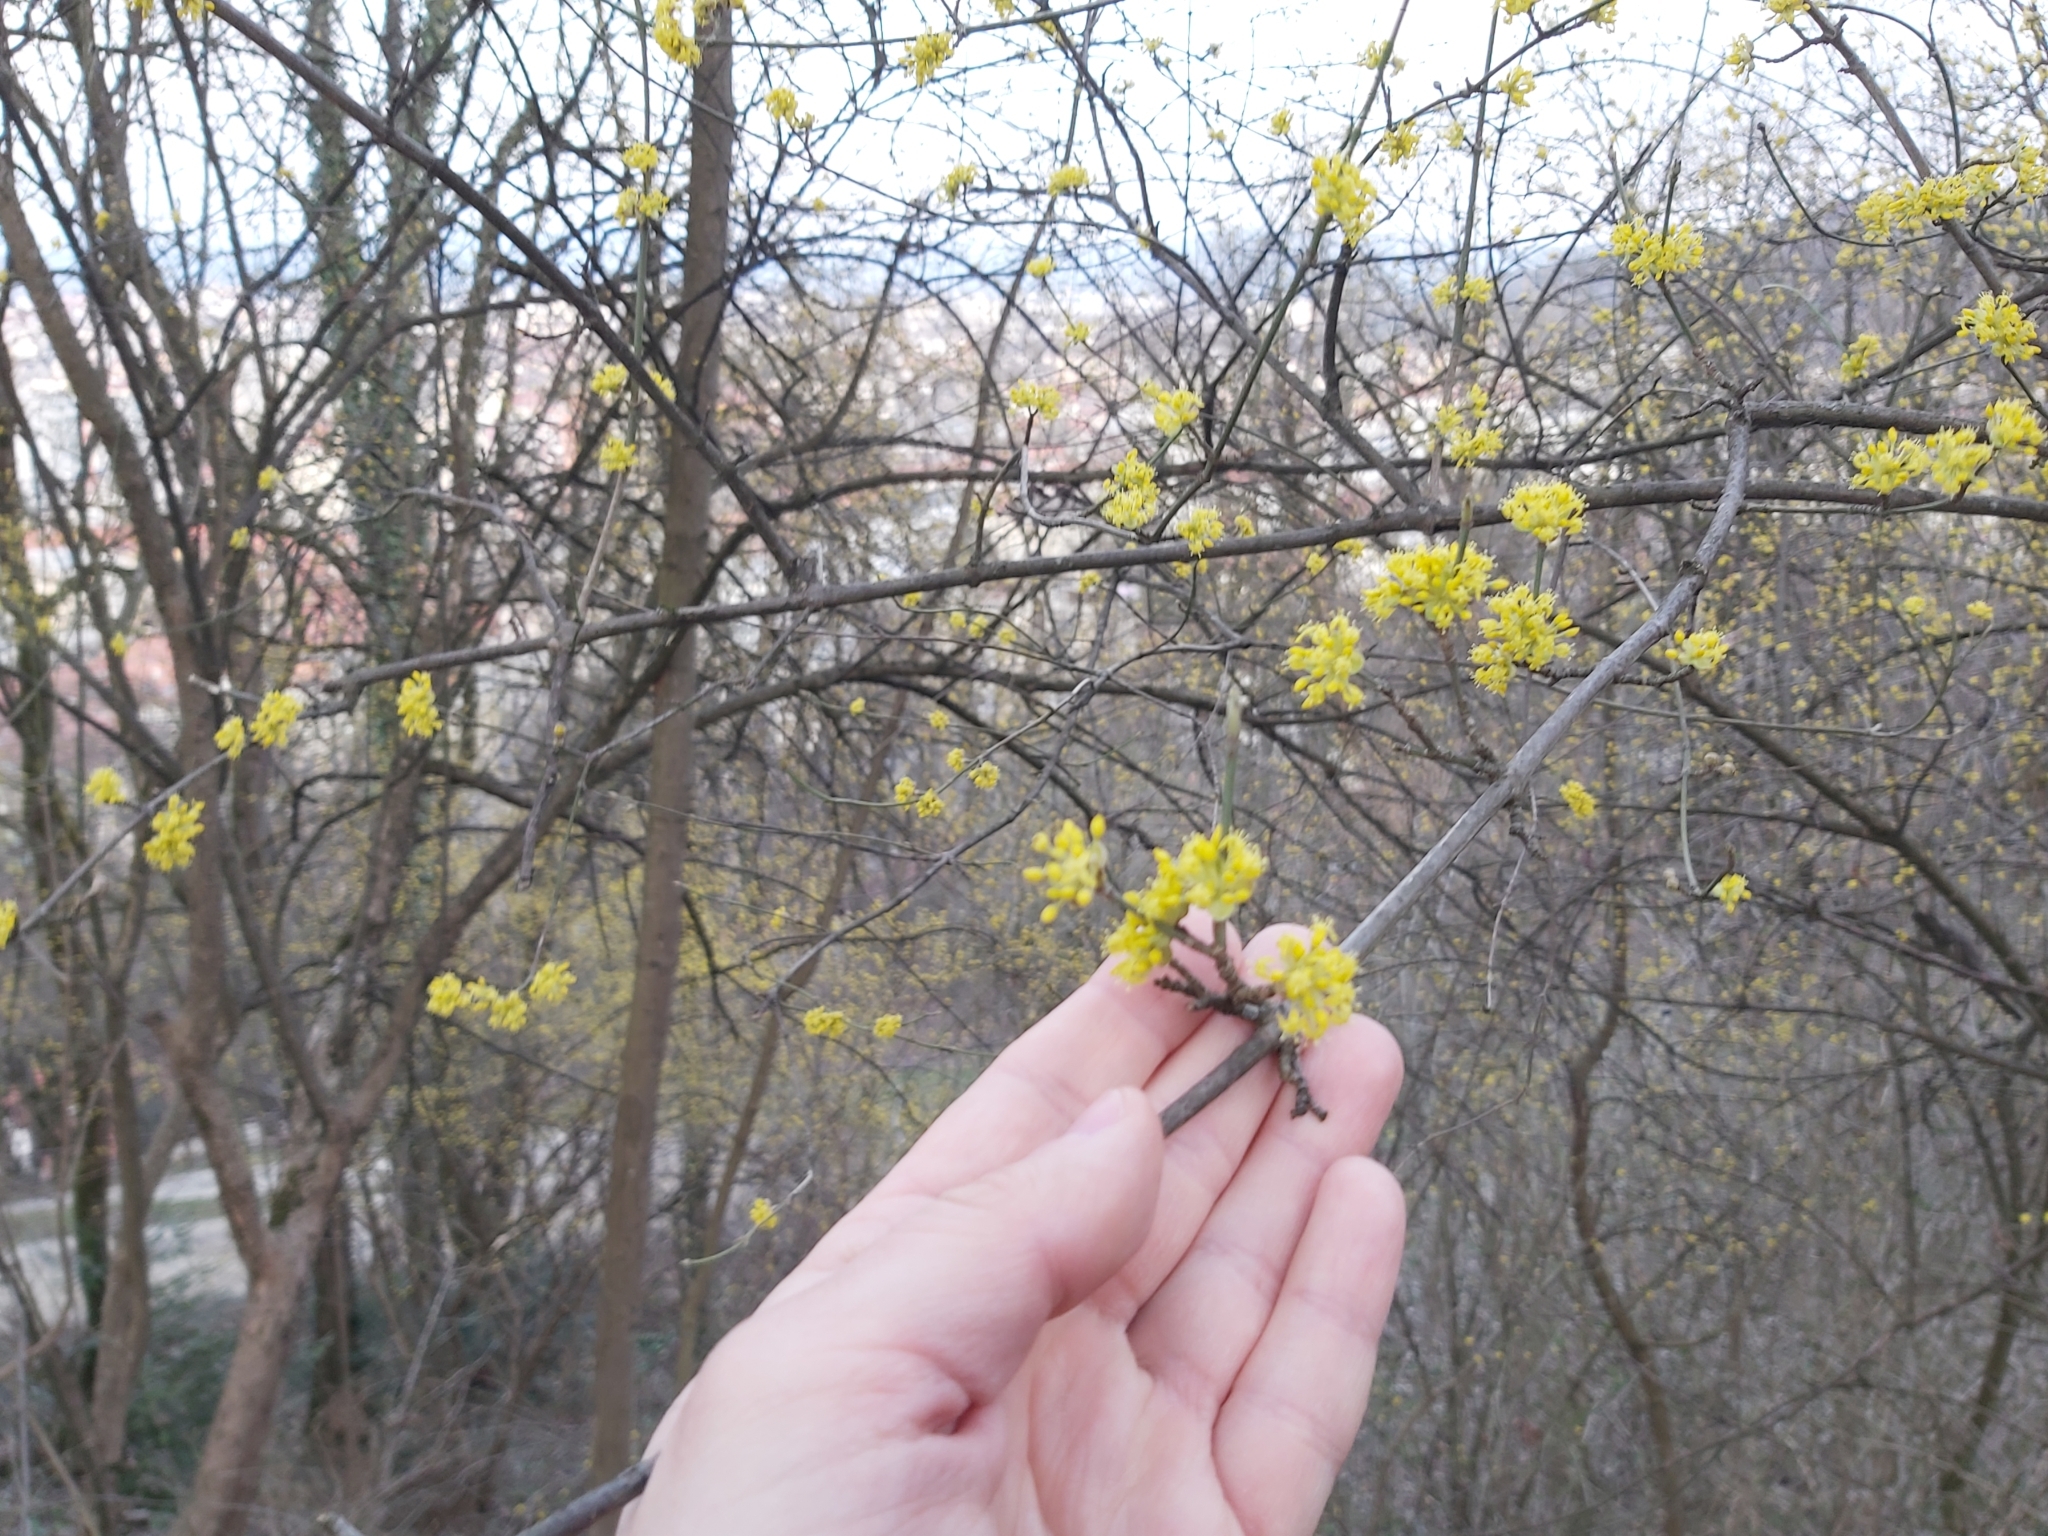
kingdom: Plantae
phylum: Tracheophyta
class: Magnoliopsida
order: Cornales
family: Cornaceae
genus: Cornus
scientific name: Cornus mas
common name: Cornelian-cherry
